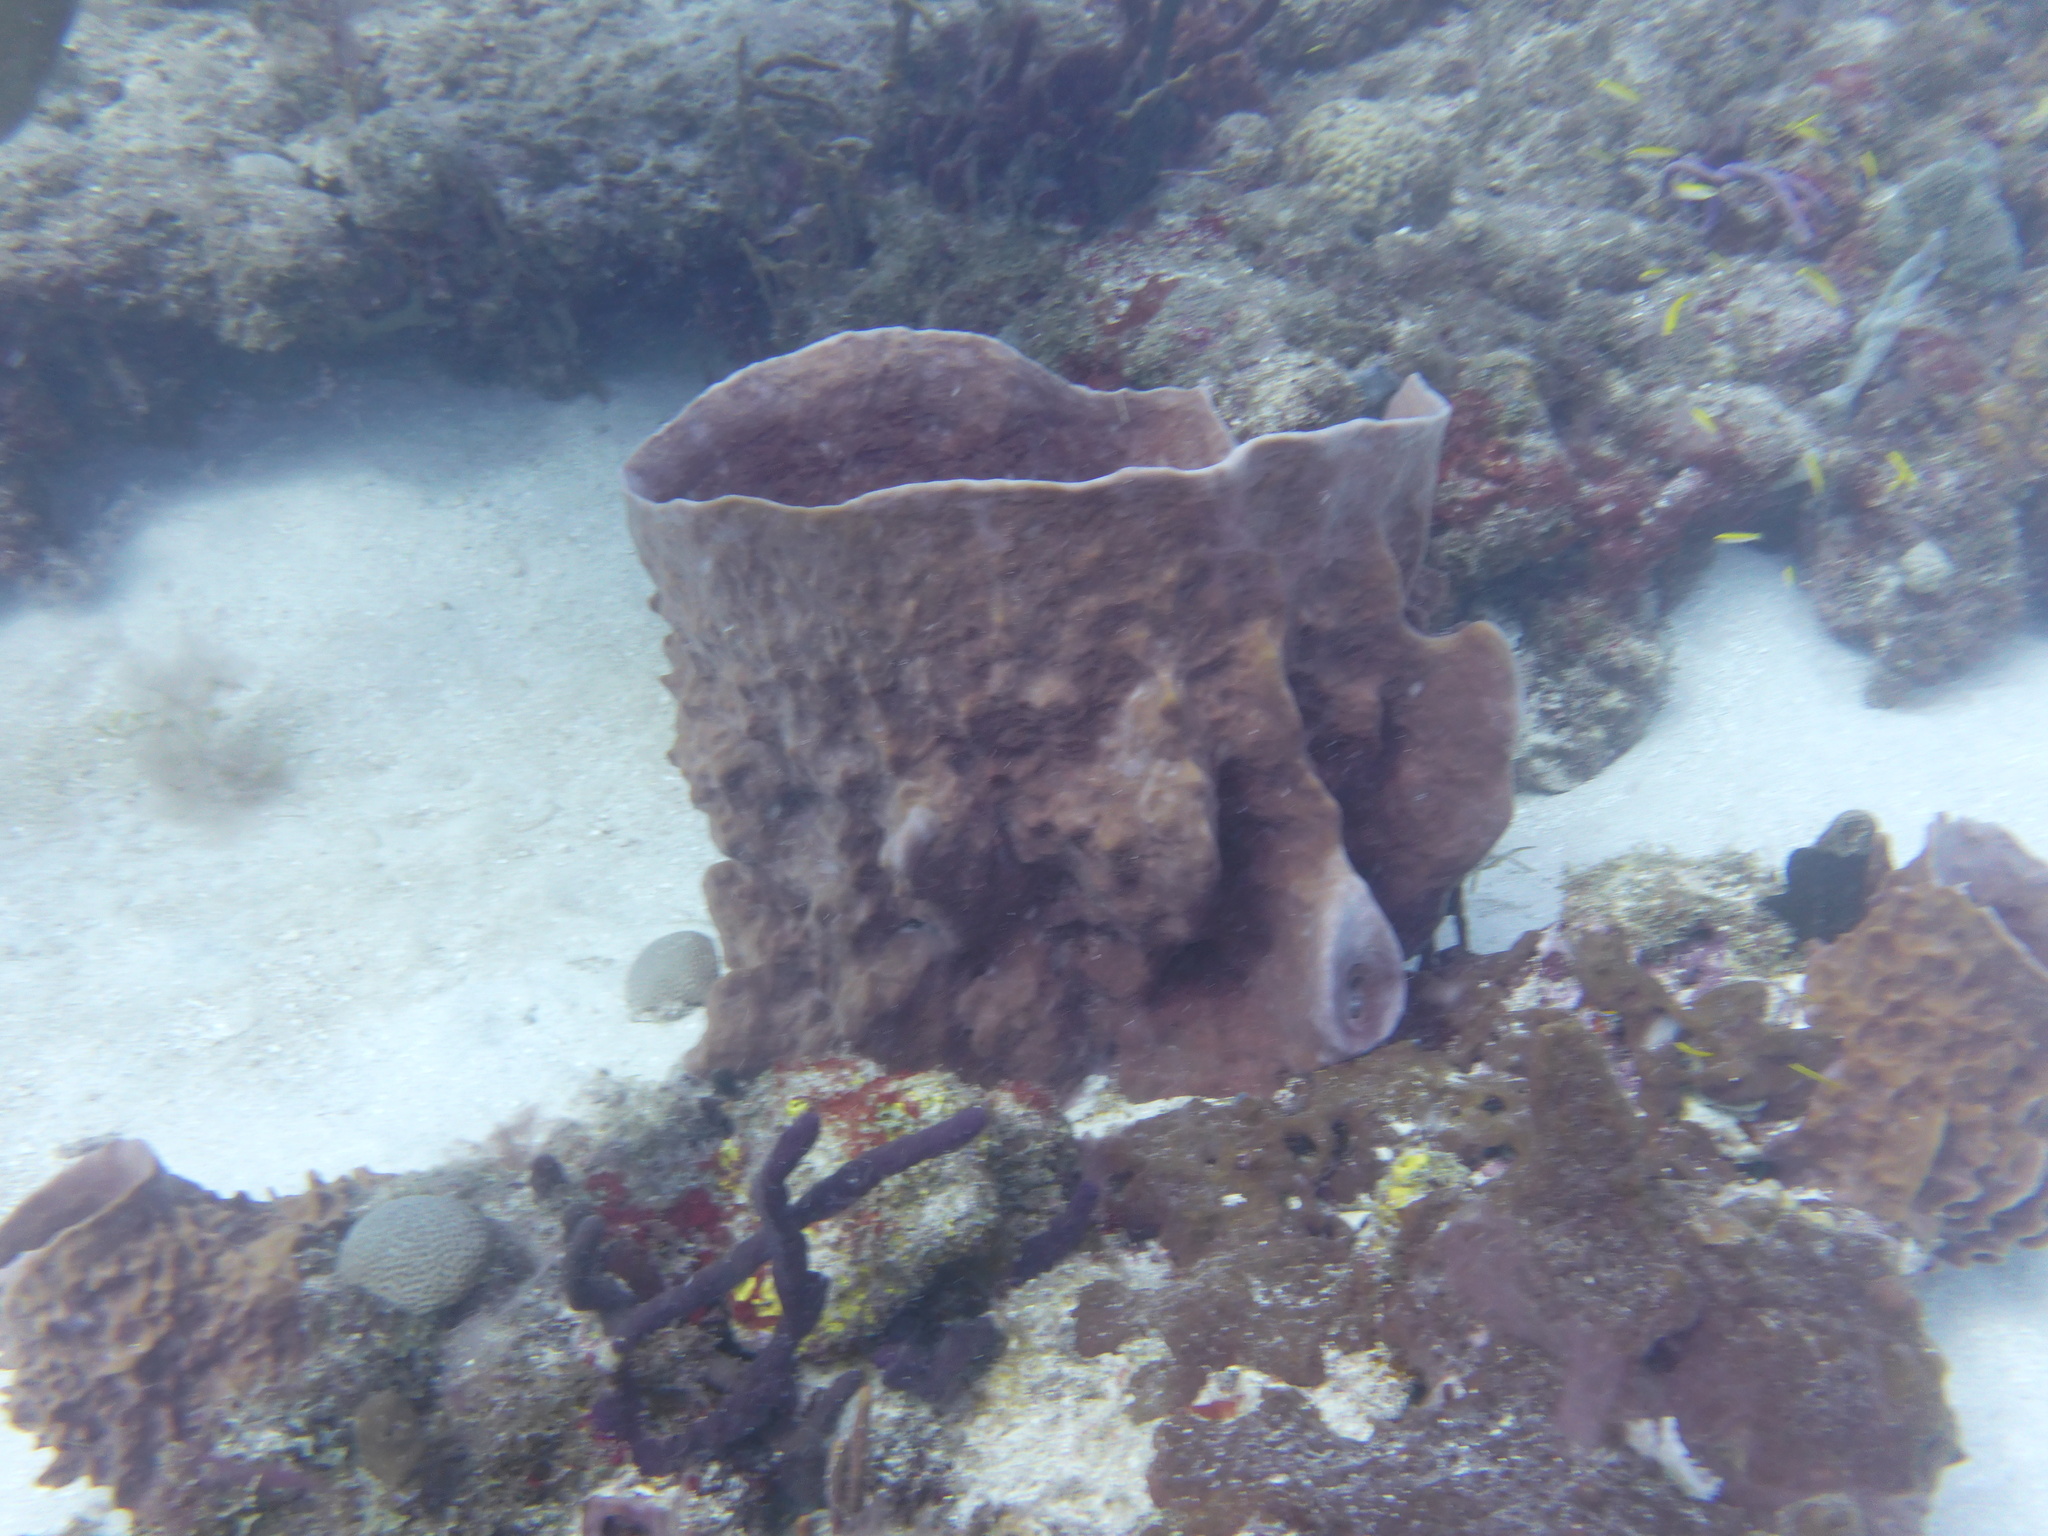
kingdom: Animalia
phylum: Porifera
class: Demospongiae
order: Haplosclerida
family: Petrosiidae
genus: Xestospongia
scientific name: Xestospongia muta
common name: Giant barrel sponge
